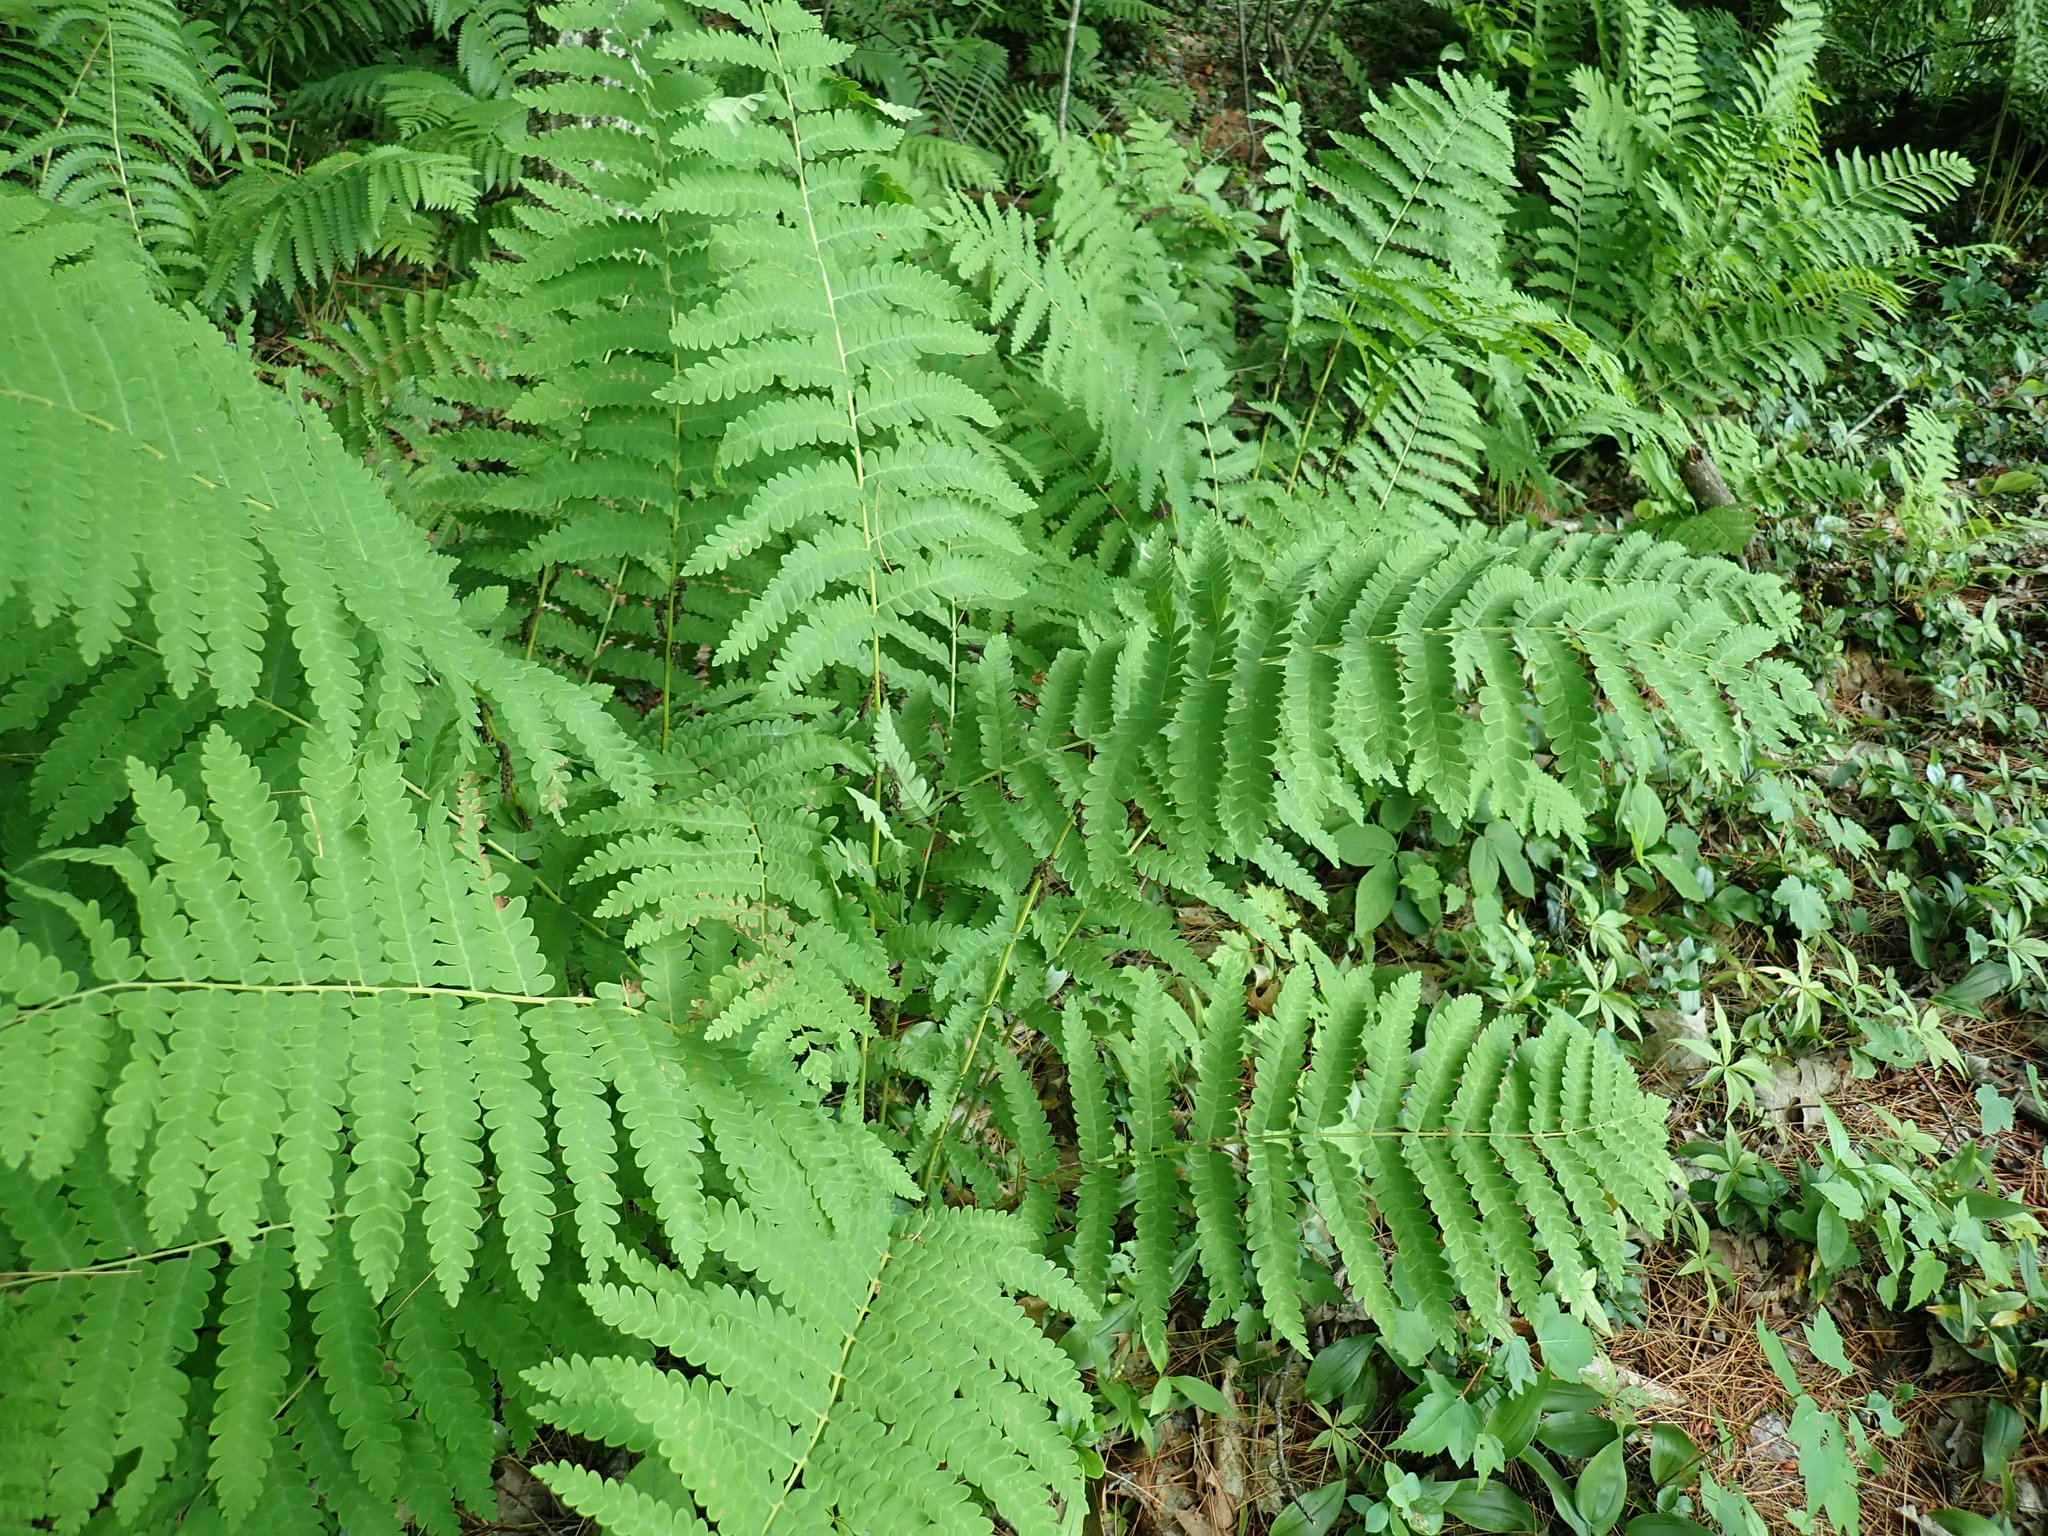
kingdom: Plantae
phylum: Tracheophyta
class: Polypodiopsida
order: Osmundales
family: Osmundaceae
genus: Claytosmunda
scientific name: Claytosmunda claytoniana
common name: Clayton's fern
